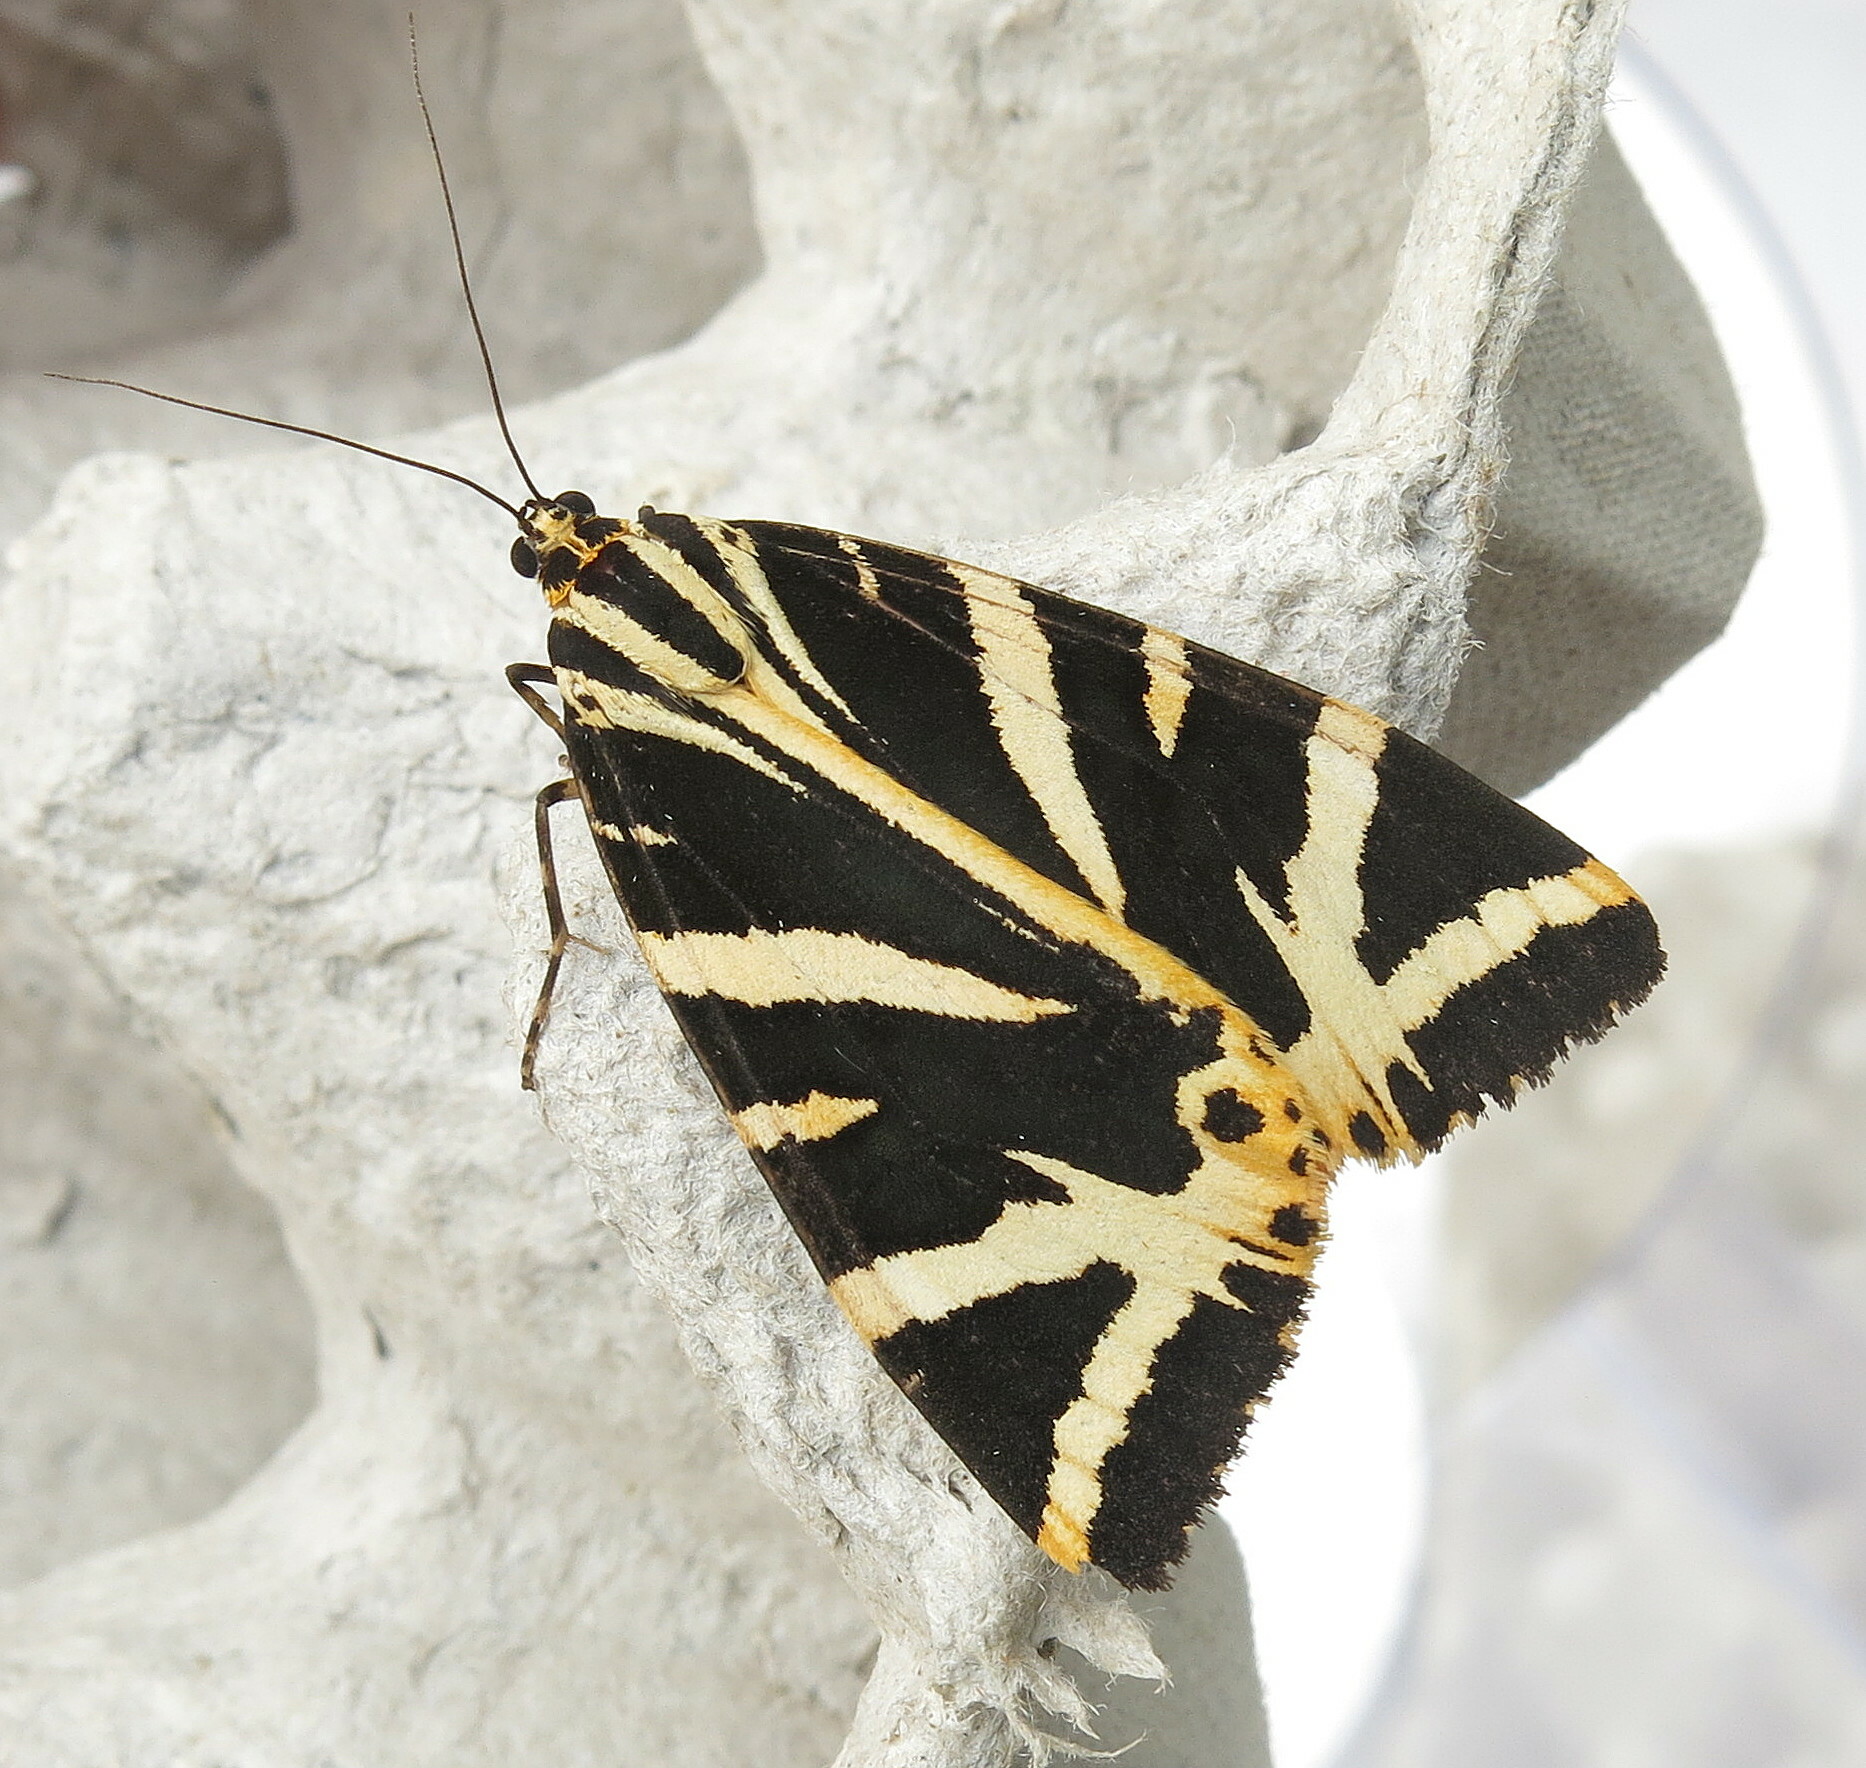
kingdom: Animalia
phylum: Arthropoda
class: Insecta
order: Lepidoptera
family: Erebidae
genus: Euplagia
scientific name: Euplagia quadripunctaria
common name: Jersey tiger
